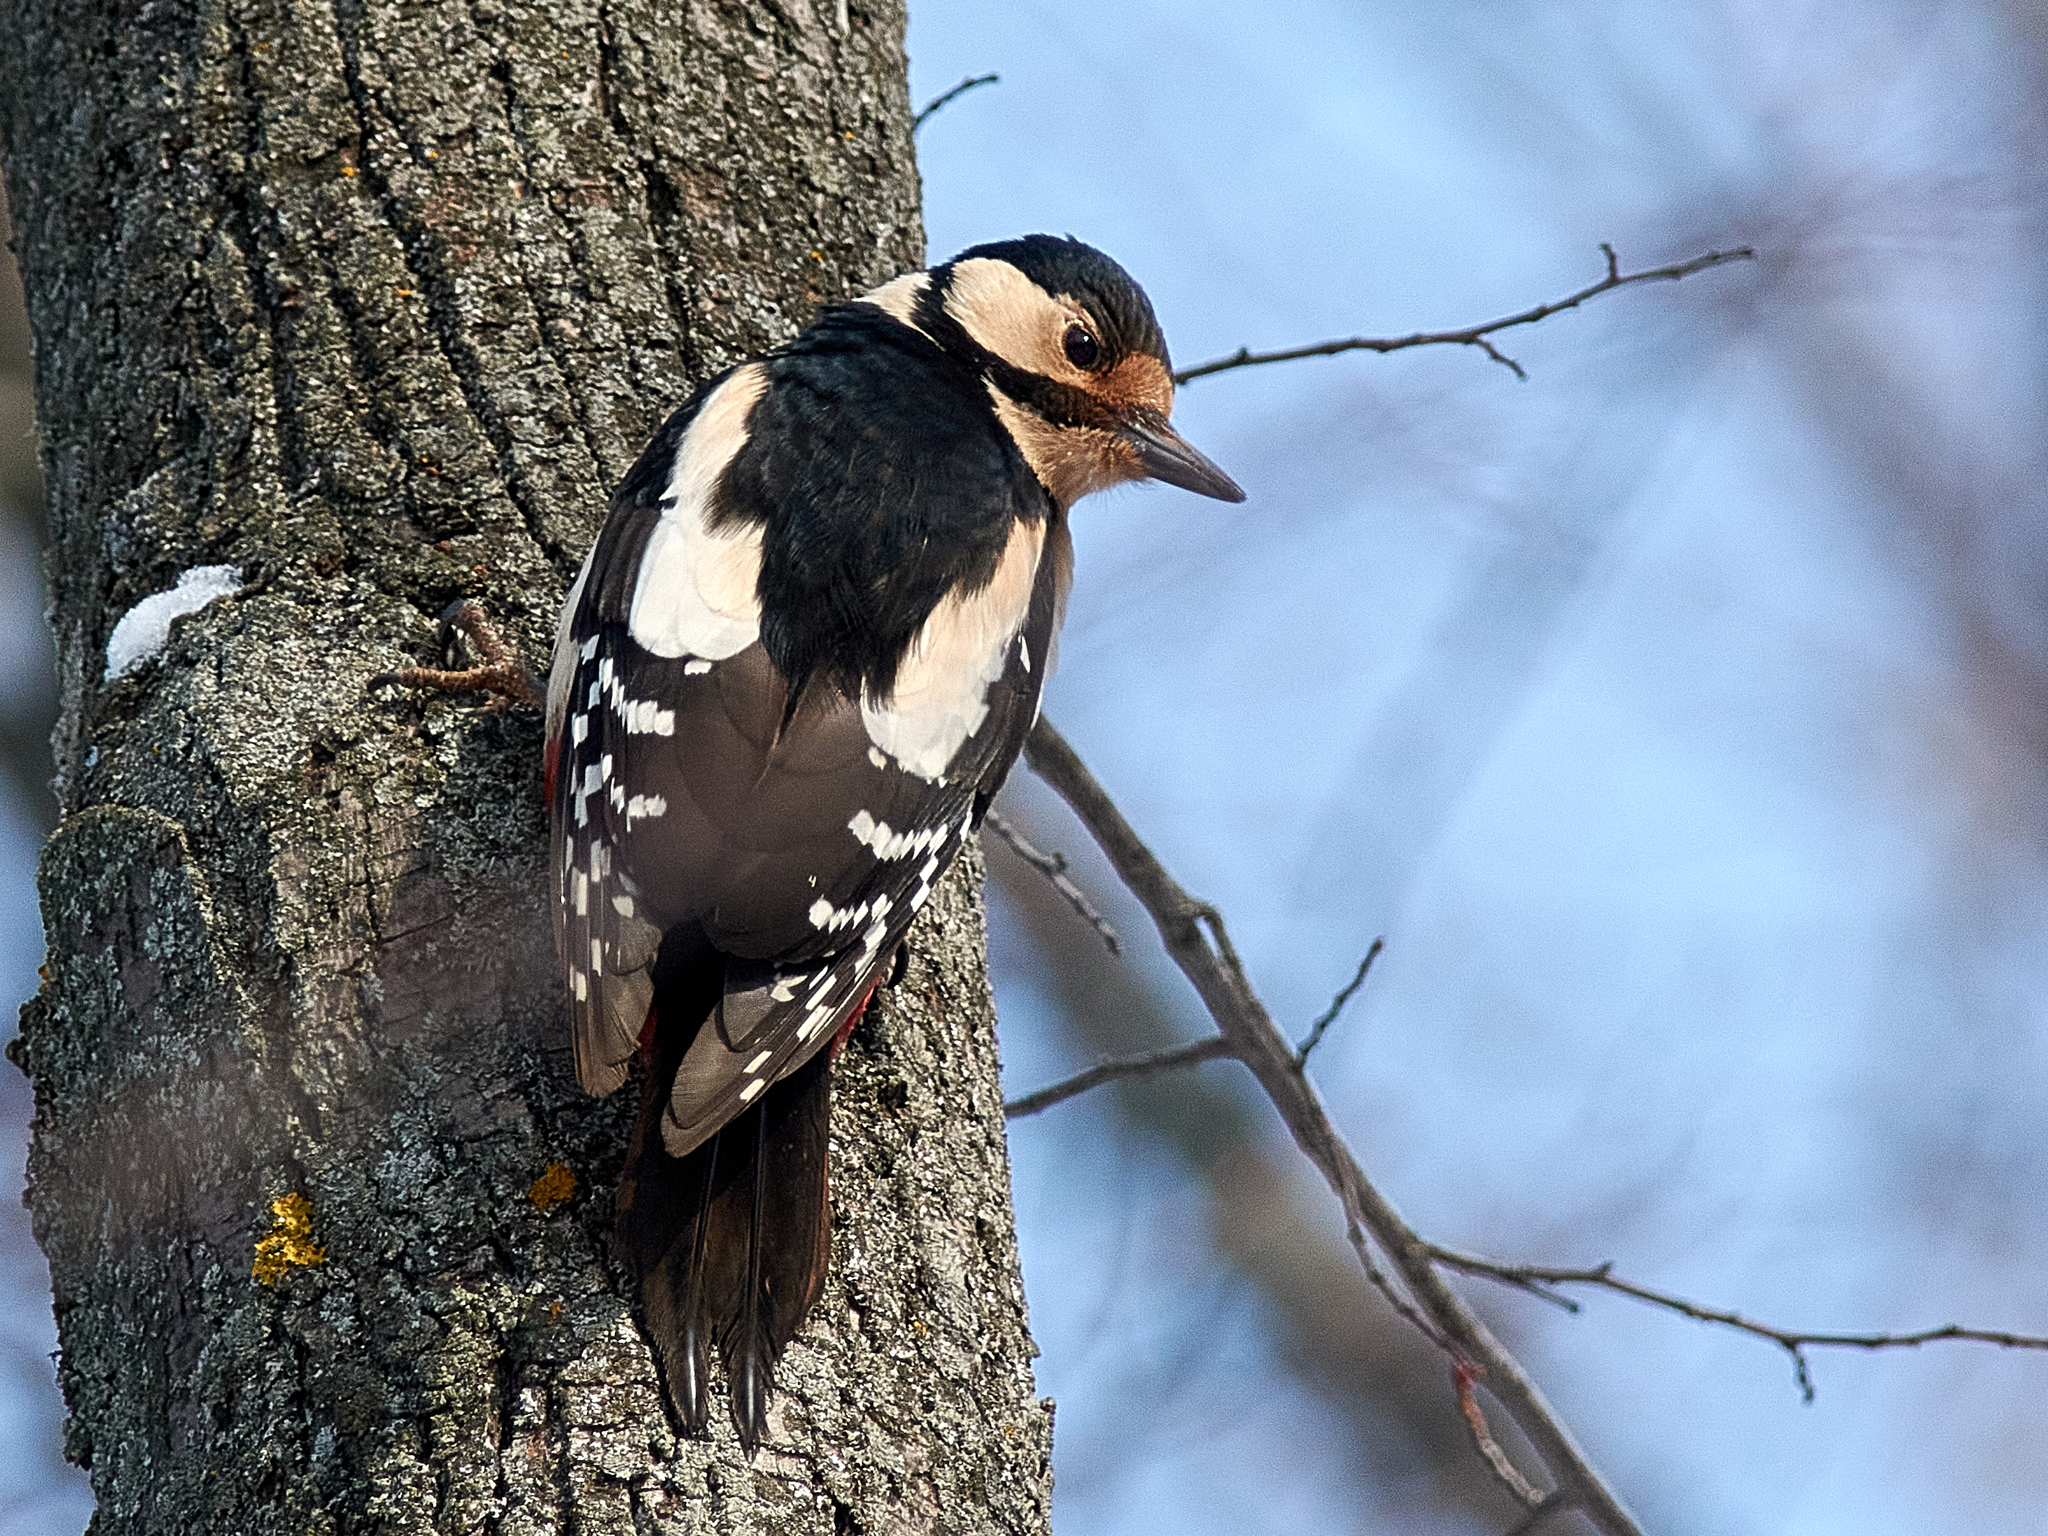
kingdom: Animalia
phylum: Chordata
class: Aves
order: Piciformes
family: Picidae
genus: Dendrocopos
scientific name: Dendrocopos major
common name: Great spotted woodpecker
